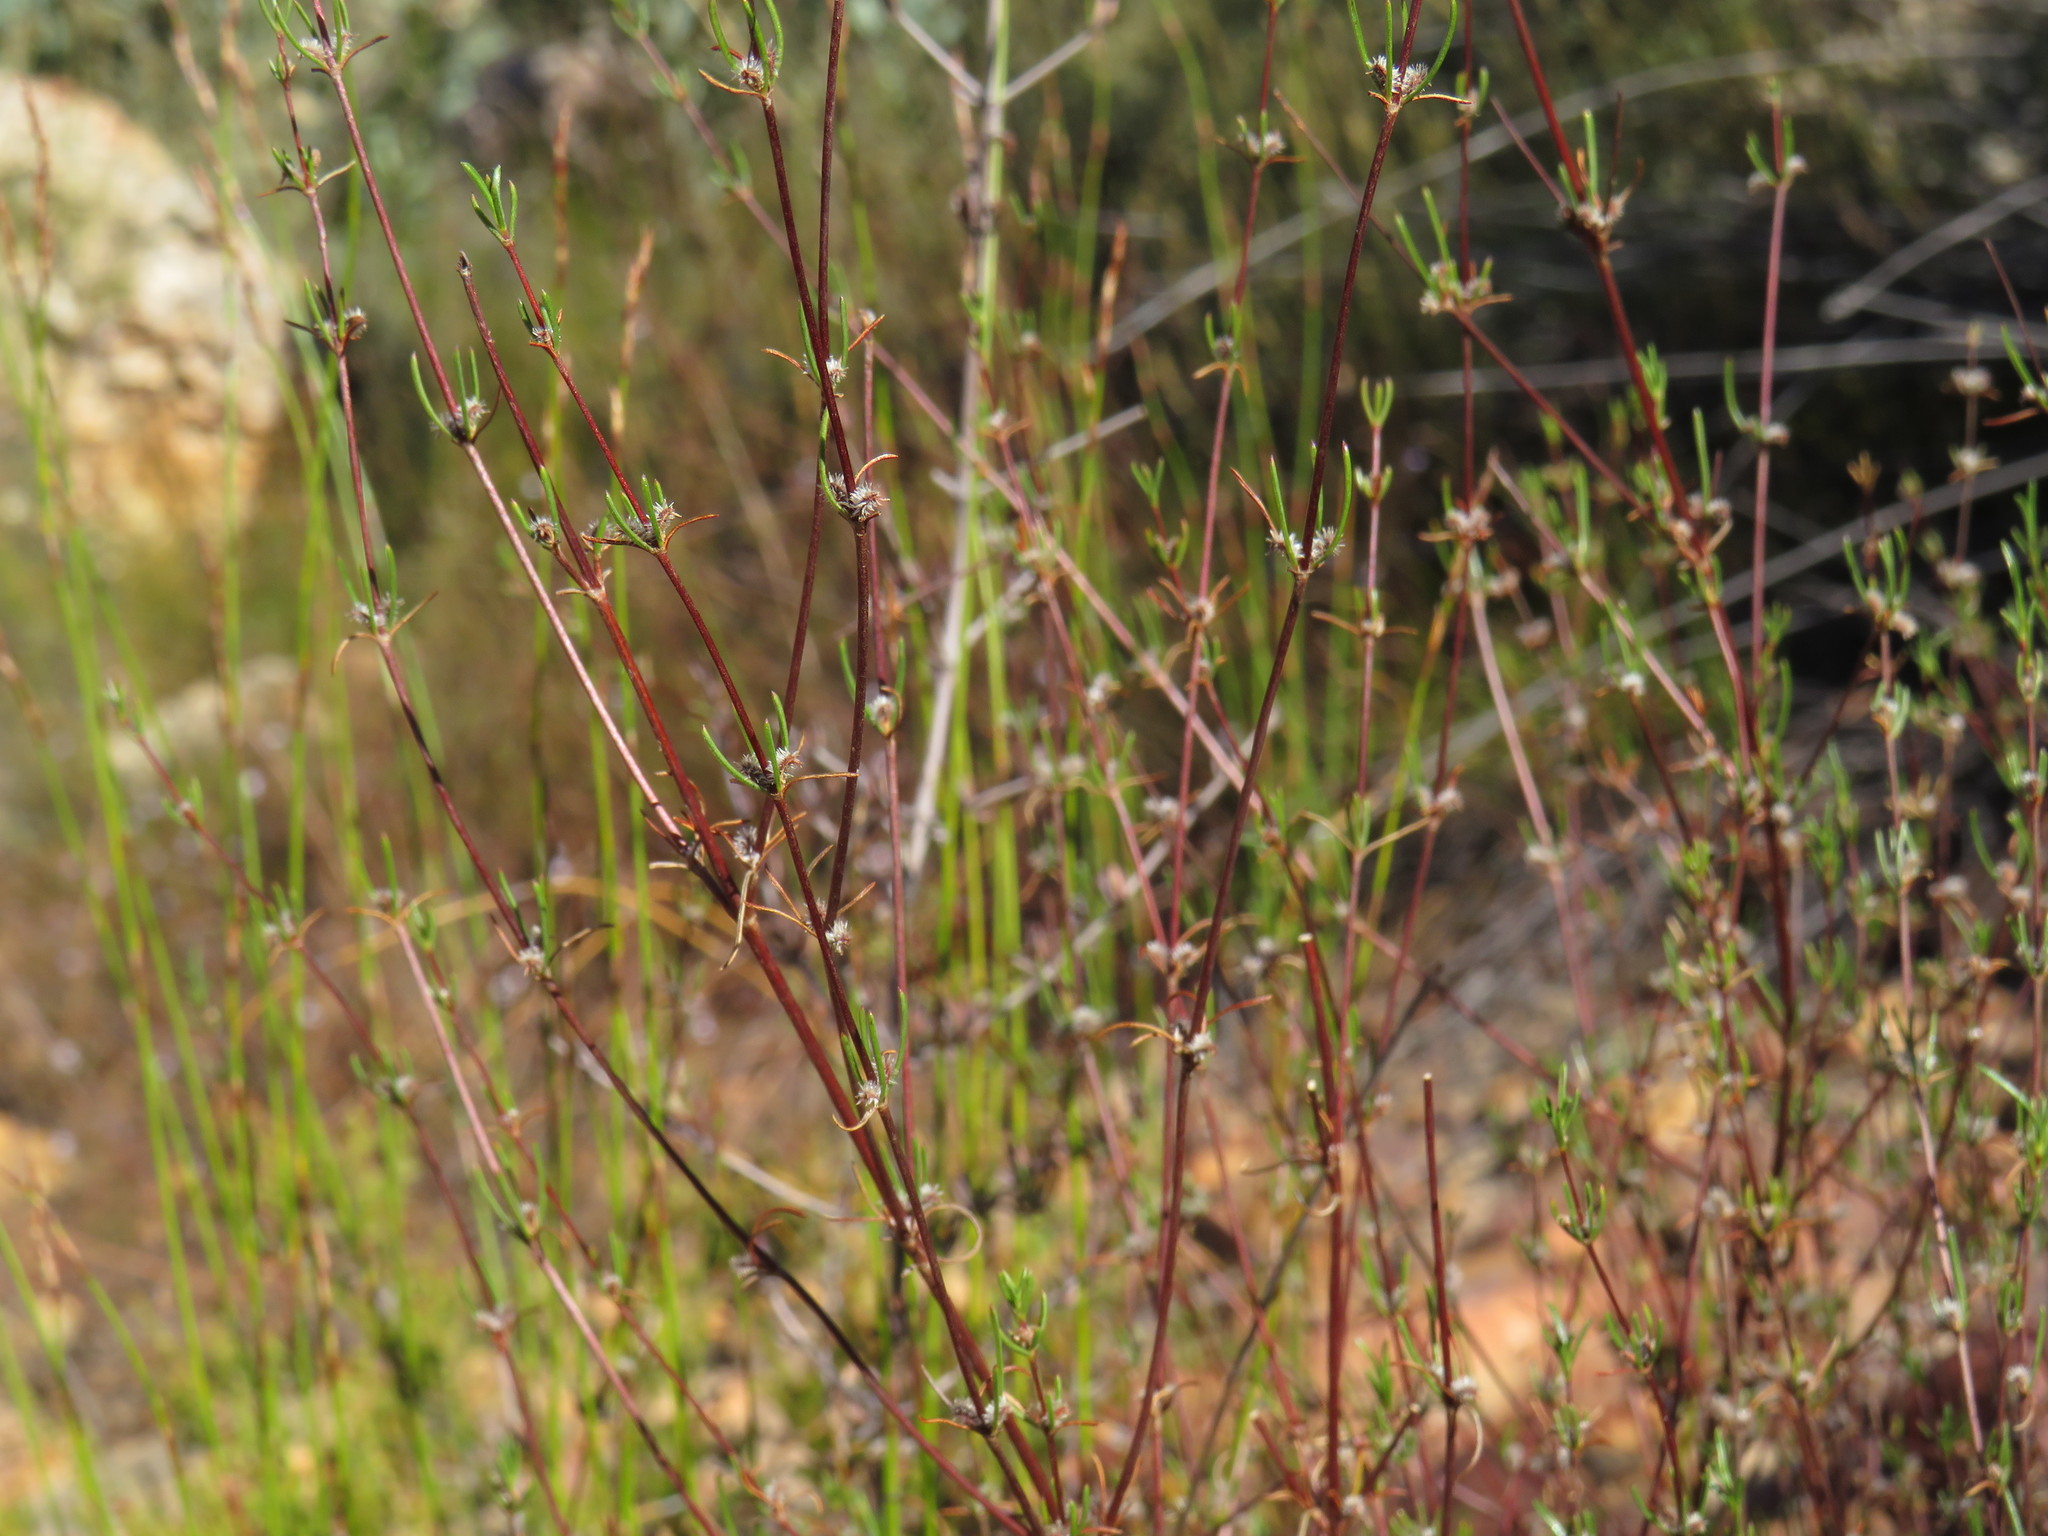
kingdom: Plantae
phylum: Tracheophyta
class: Magnoliopsida
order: Gentianales
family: Rubiaceae
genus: Anthospermum
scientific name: Anthospermum bicorne
